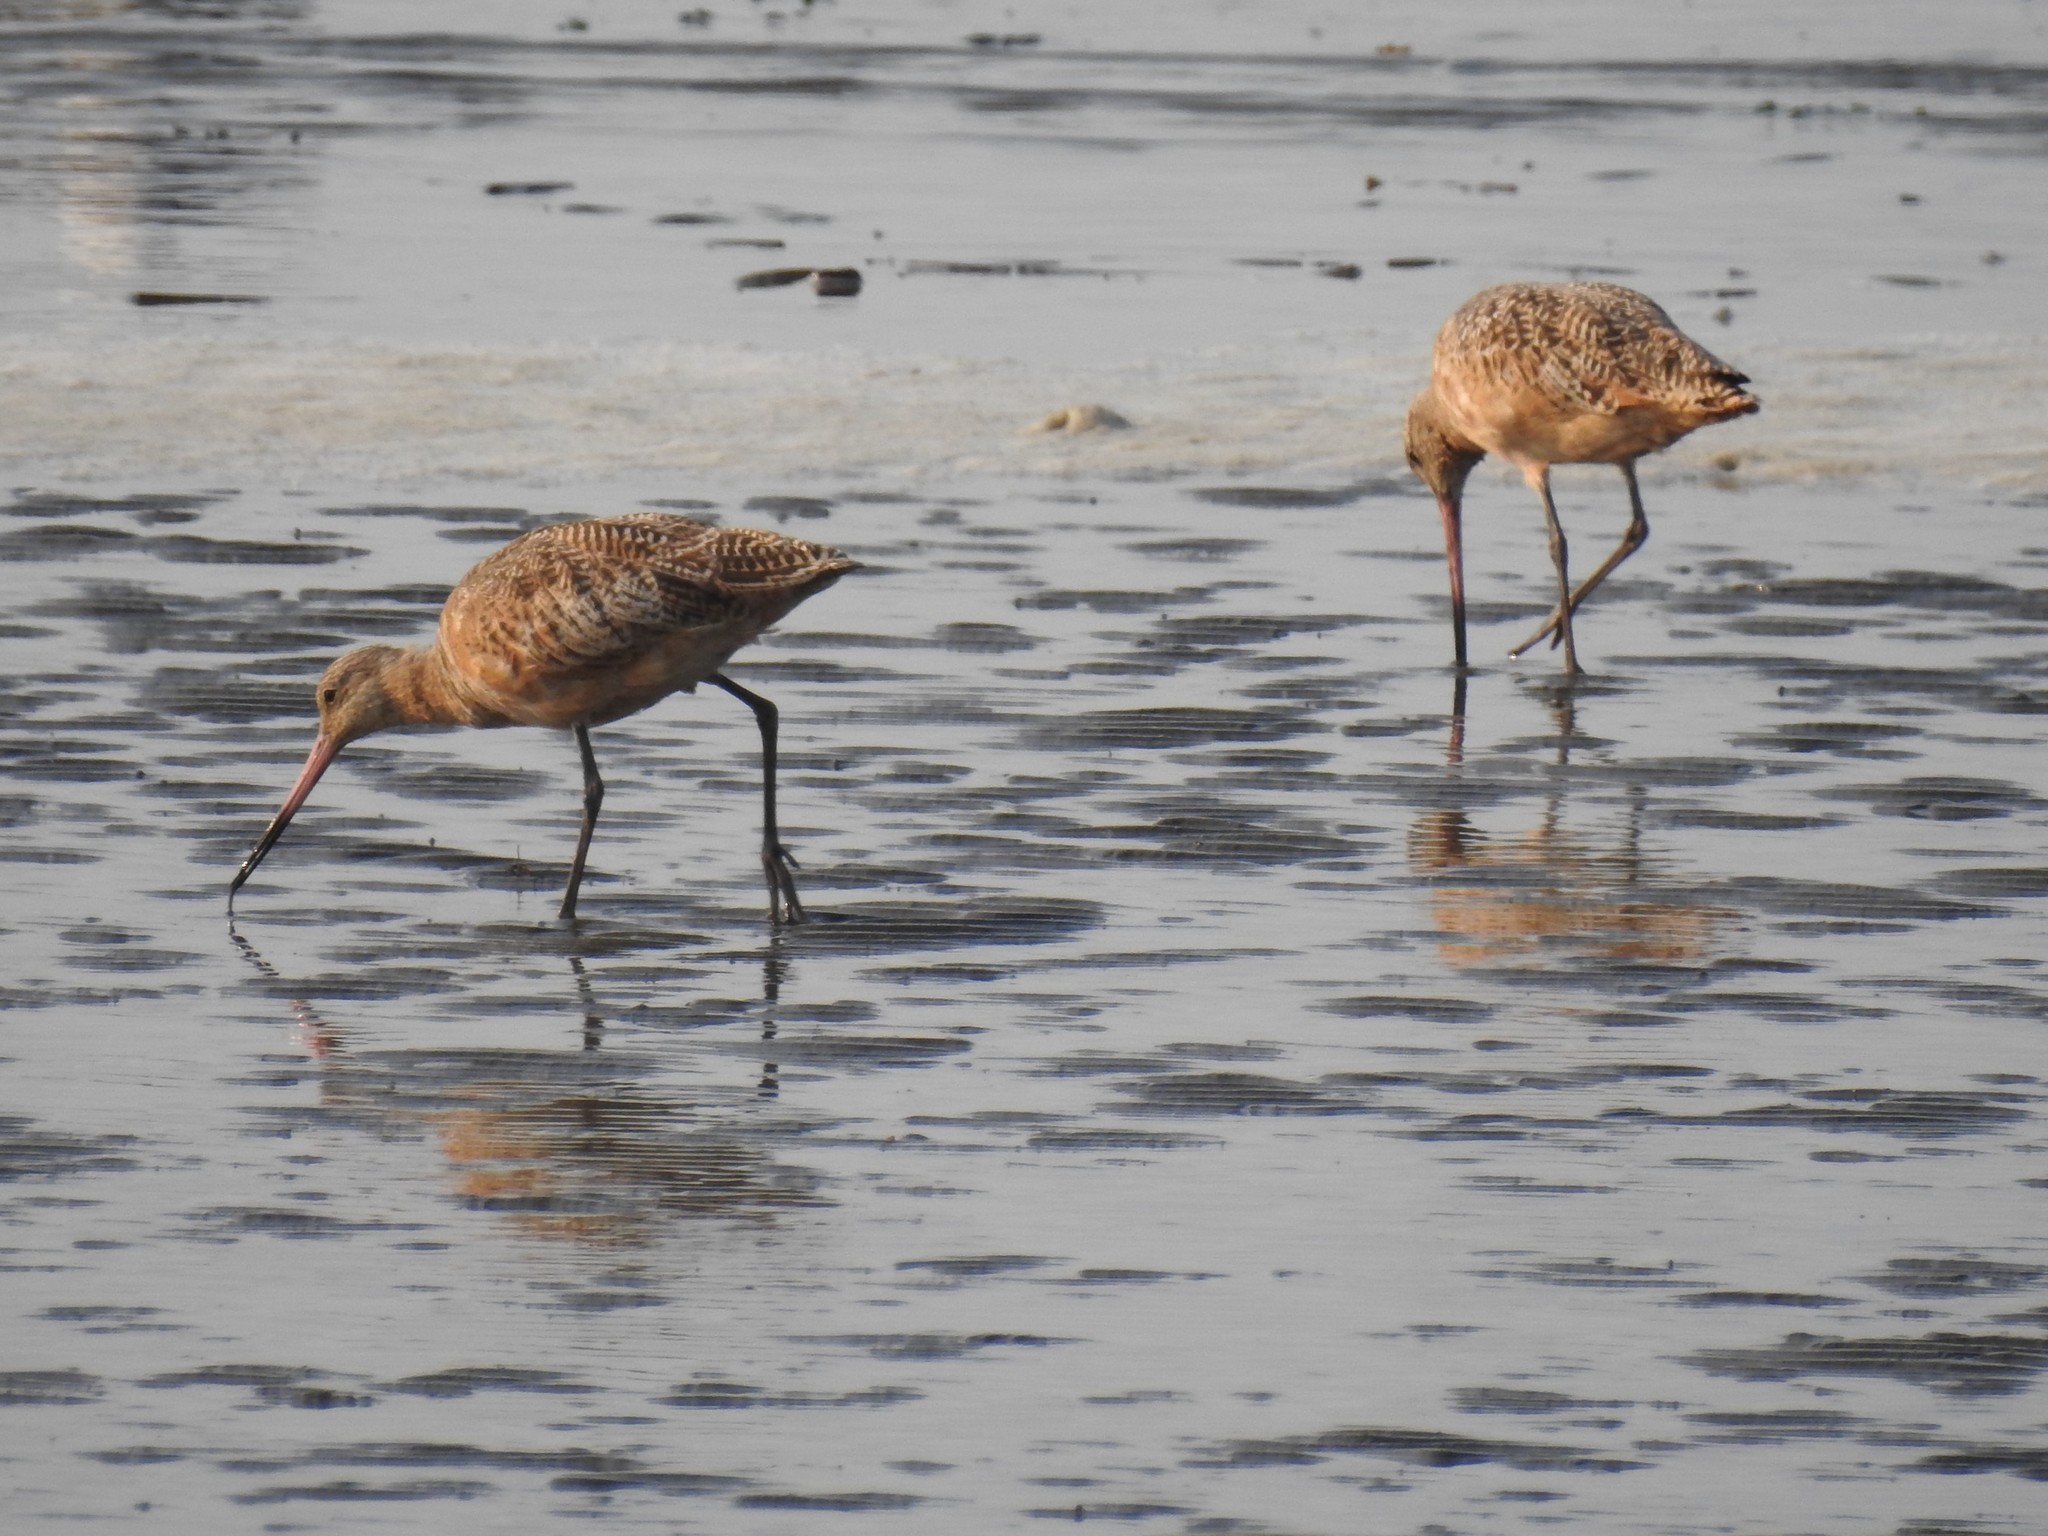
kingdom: Animalia
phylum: Chordata
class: Aves
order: Charadriiformes
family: Scolopacidae
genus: Limosa
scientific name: Limosa fedoa
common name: Marbled godwit
